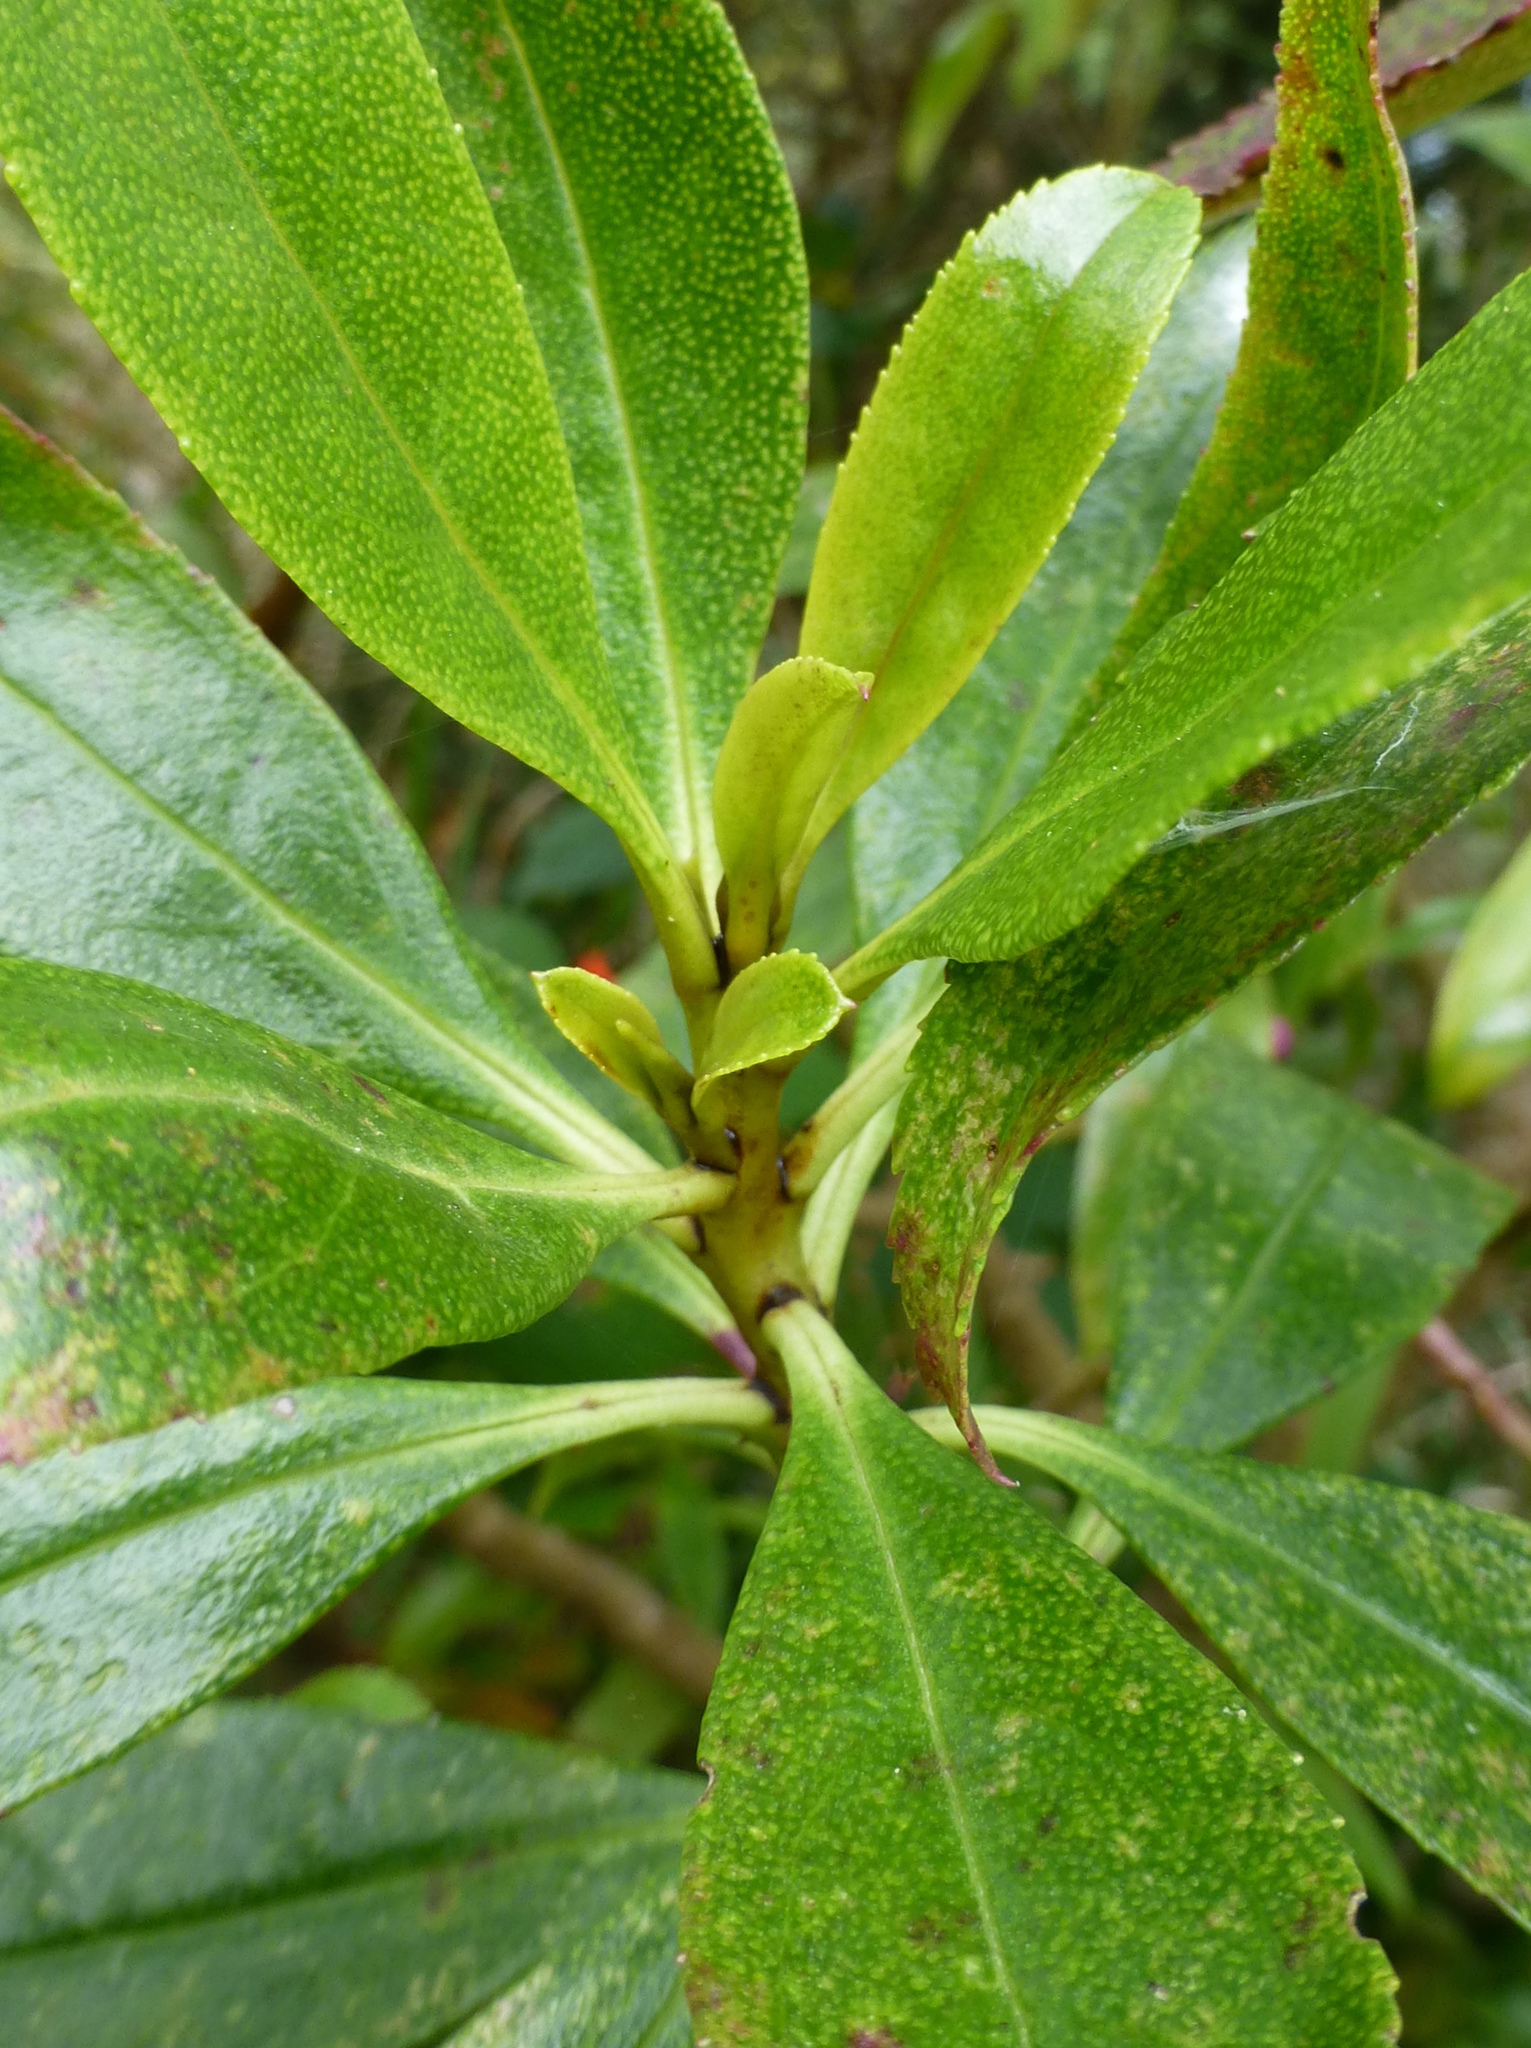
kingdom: Plantae
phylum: Tracheophyta
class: Magnoliopsida
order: Lamiales
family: Scrophulariaceae
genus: Myoporum
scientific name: Myoporum laetum
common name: Ngaio tree
